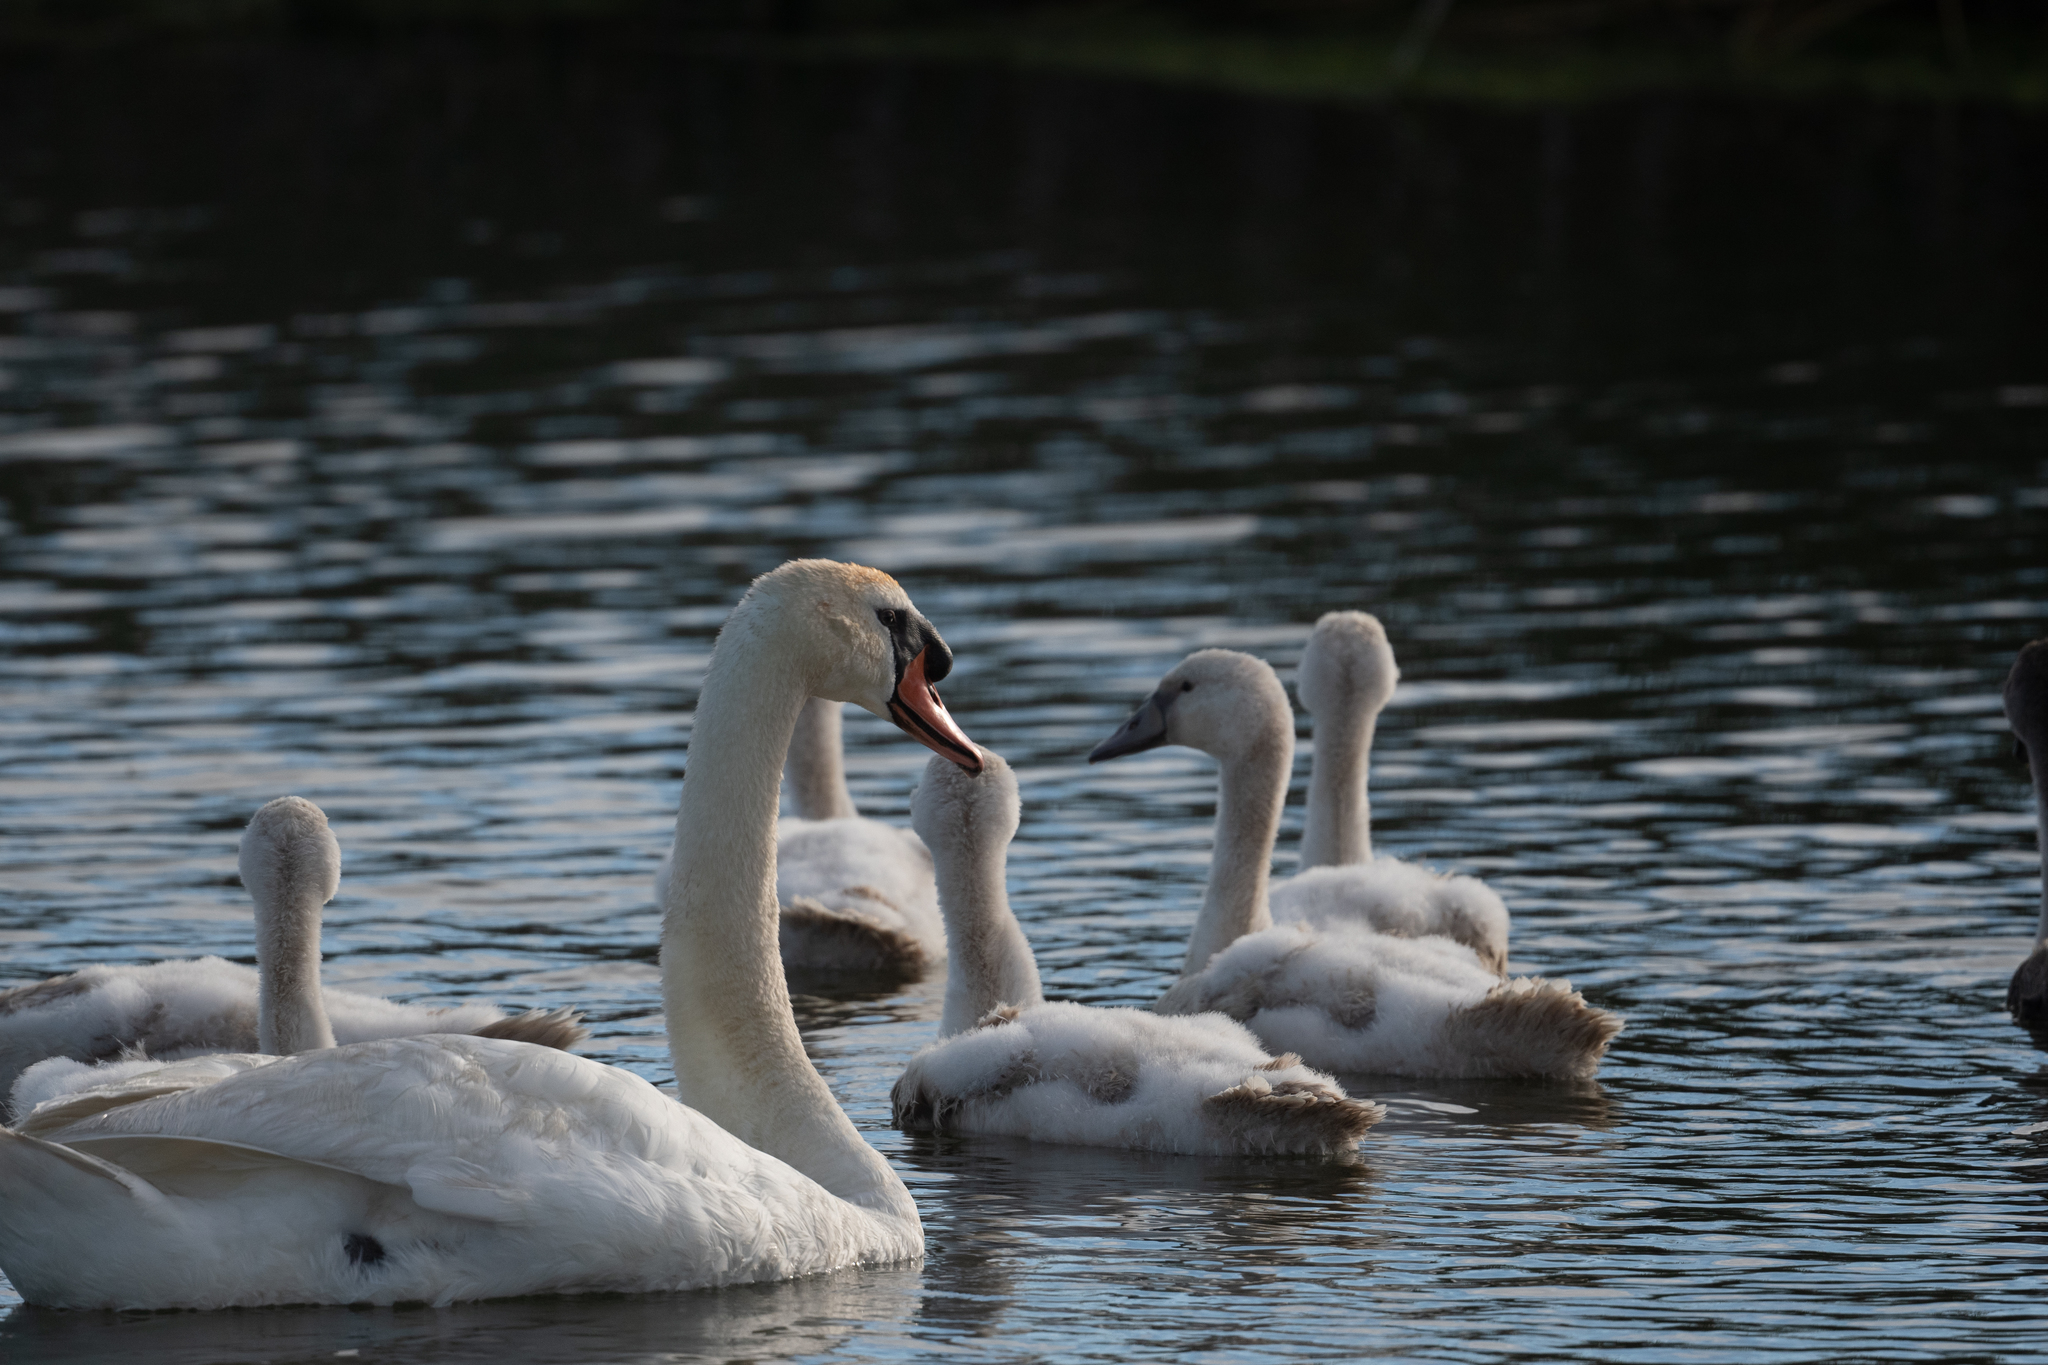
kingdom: Animalia
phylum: Chordata
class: Aves
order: Anseriformes
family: Anatidae
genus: Cygnus
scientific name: Cygnus olor
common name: Mute swan
